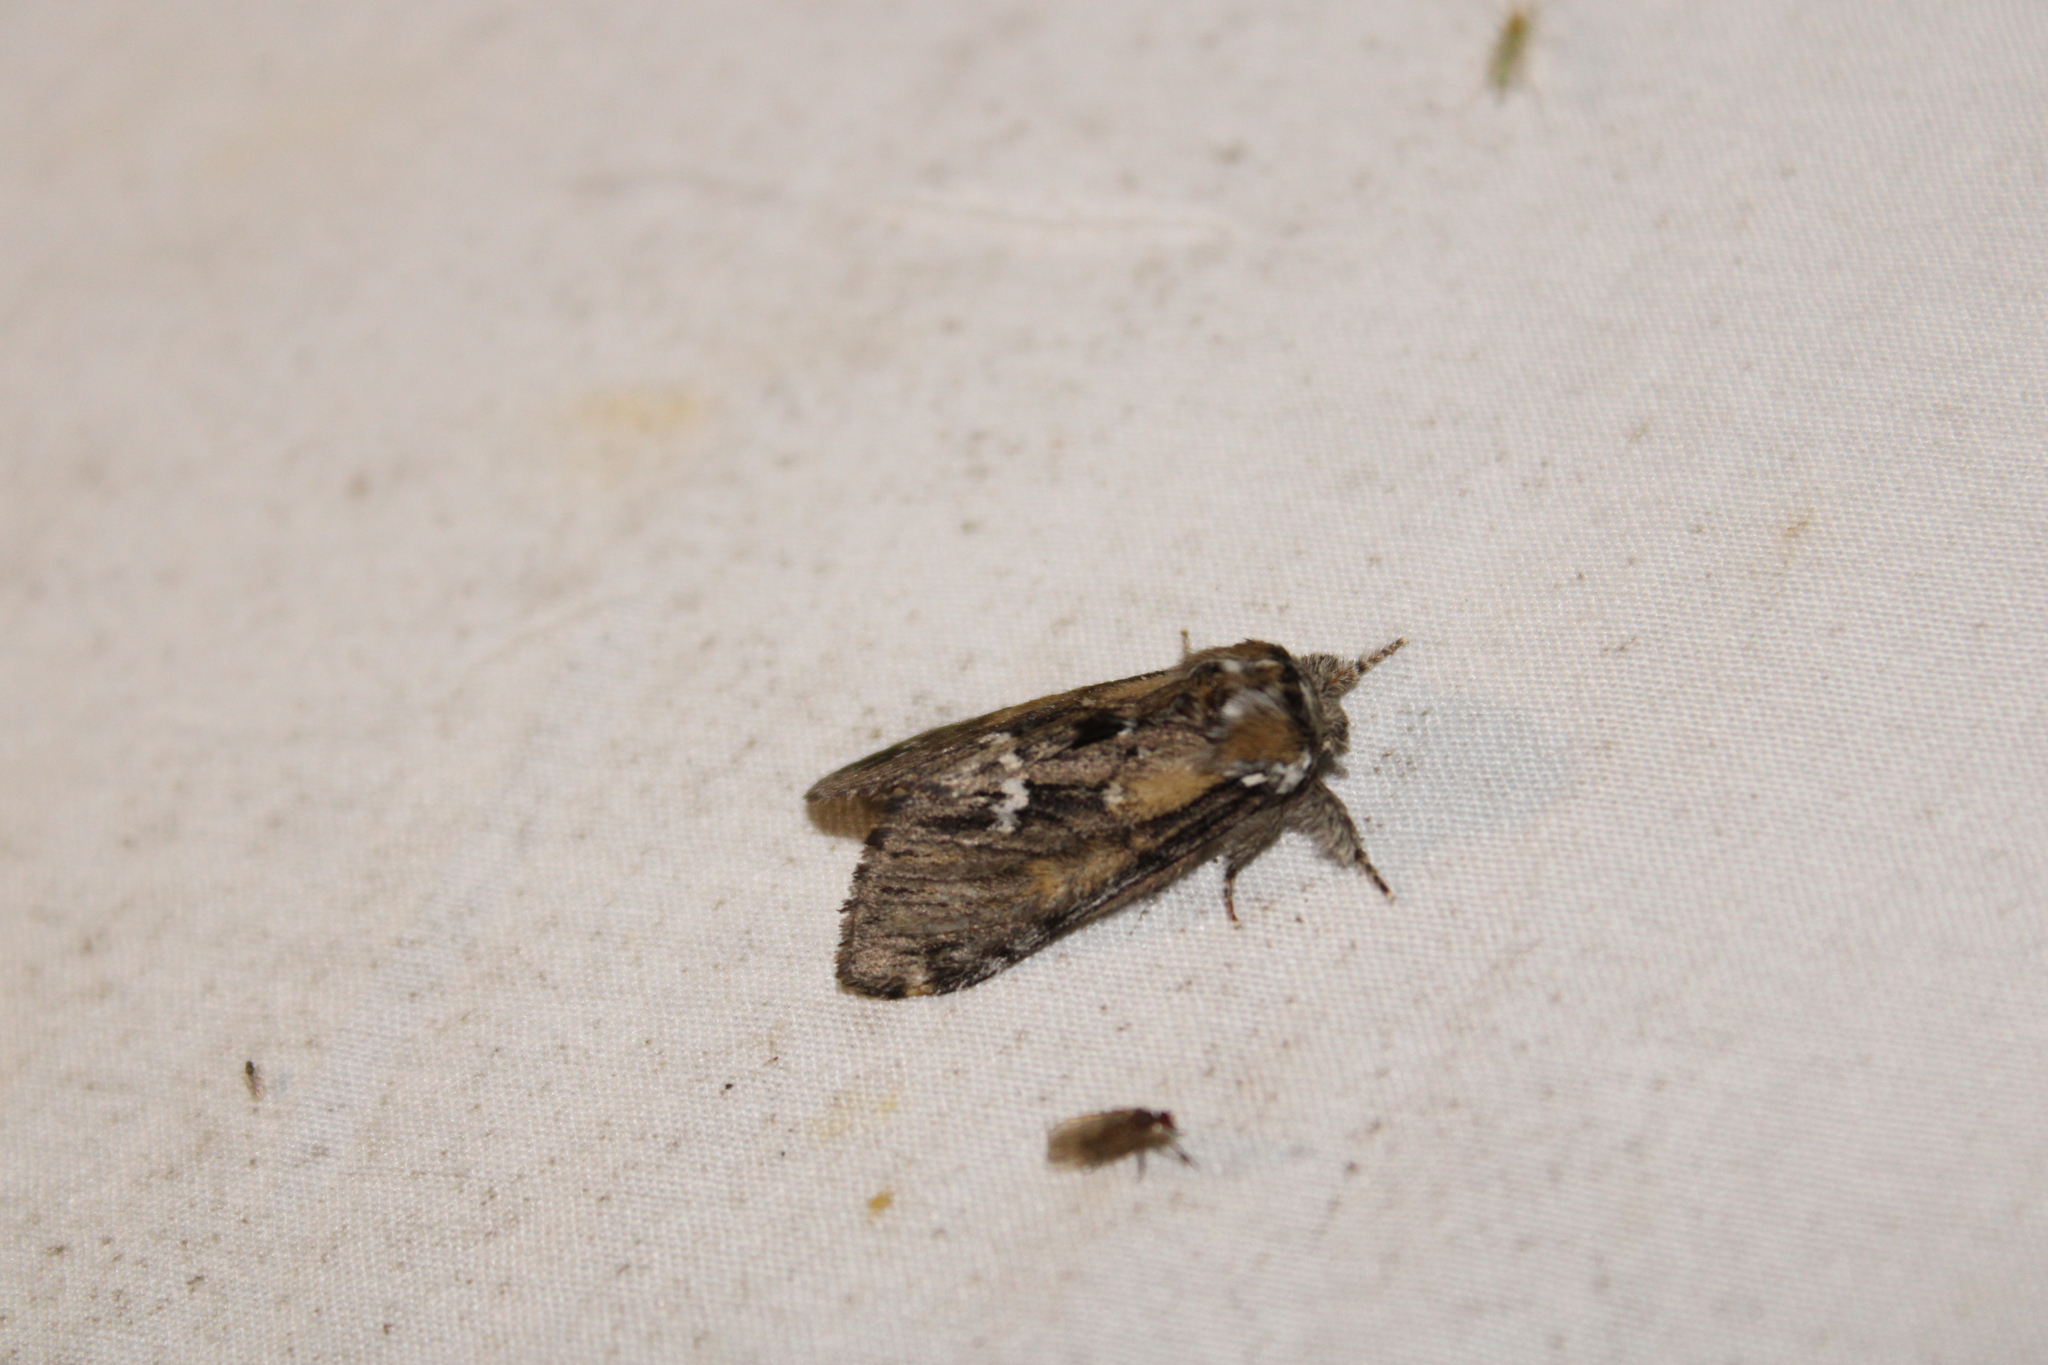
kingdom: Animalia
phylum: Arthropoda
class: Insecta
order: Lepidoptera
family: Notodontidae
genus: Paraeschra
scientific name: Paraeschra georgica
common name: Georgian prominent
